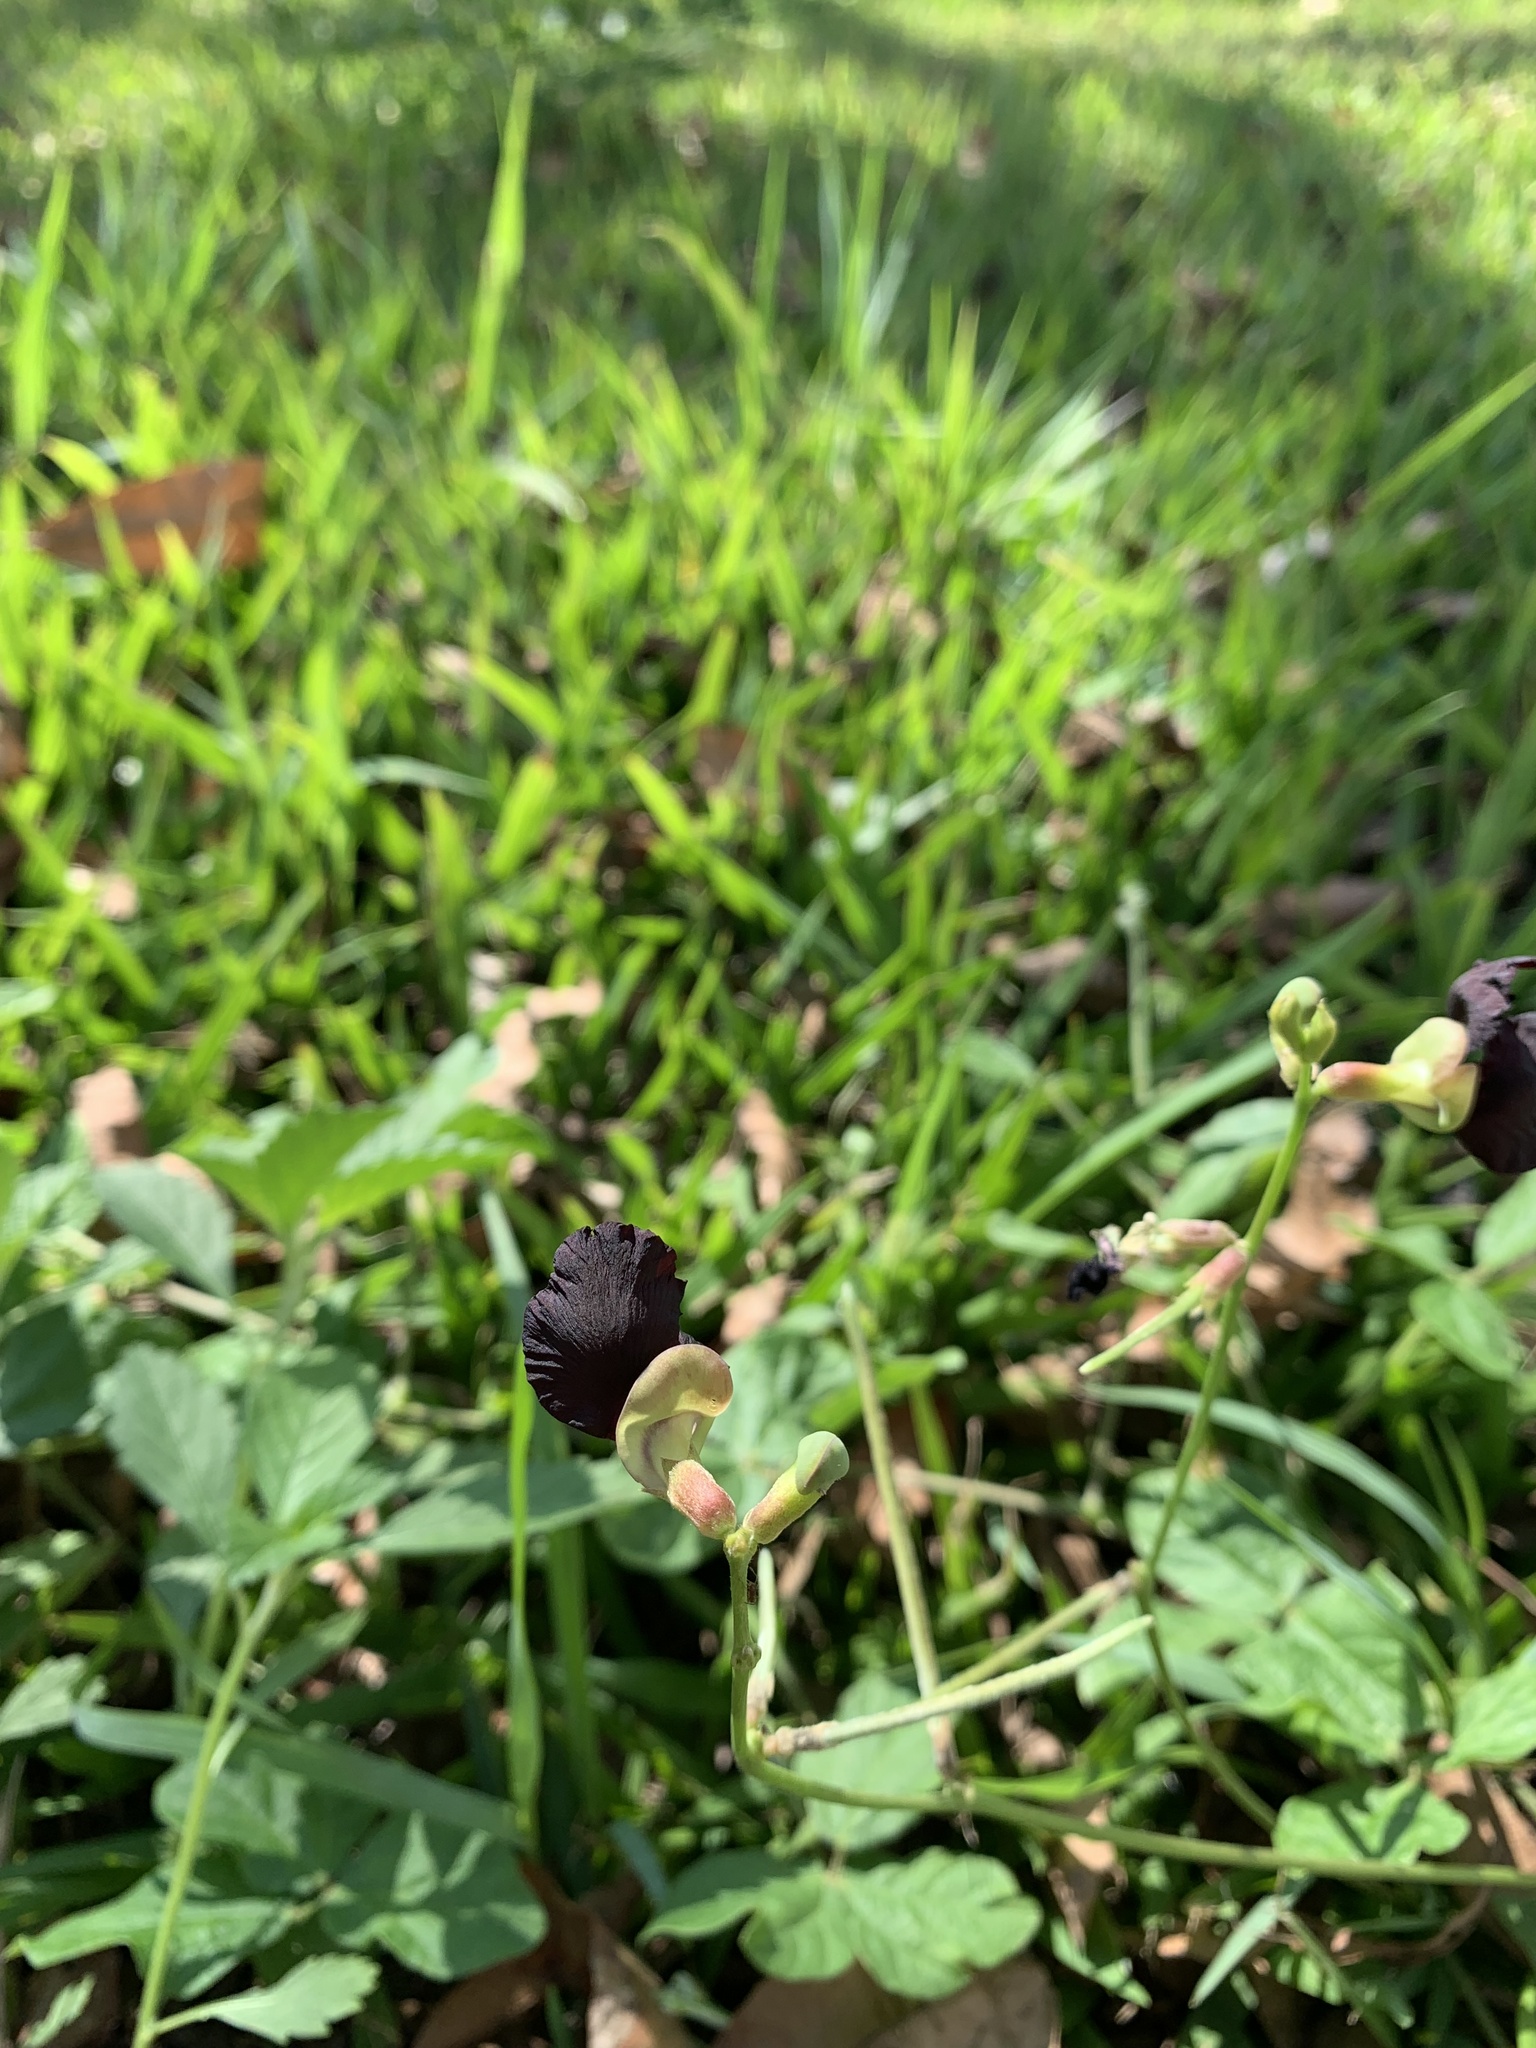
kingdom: Plantae
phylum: Tracheophyta
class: Magnoliopsida
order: Fabales
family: Fabaceae
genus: Macroptilium
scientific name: Macroptilium atropurpureum
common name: Purple bushbean
